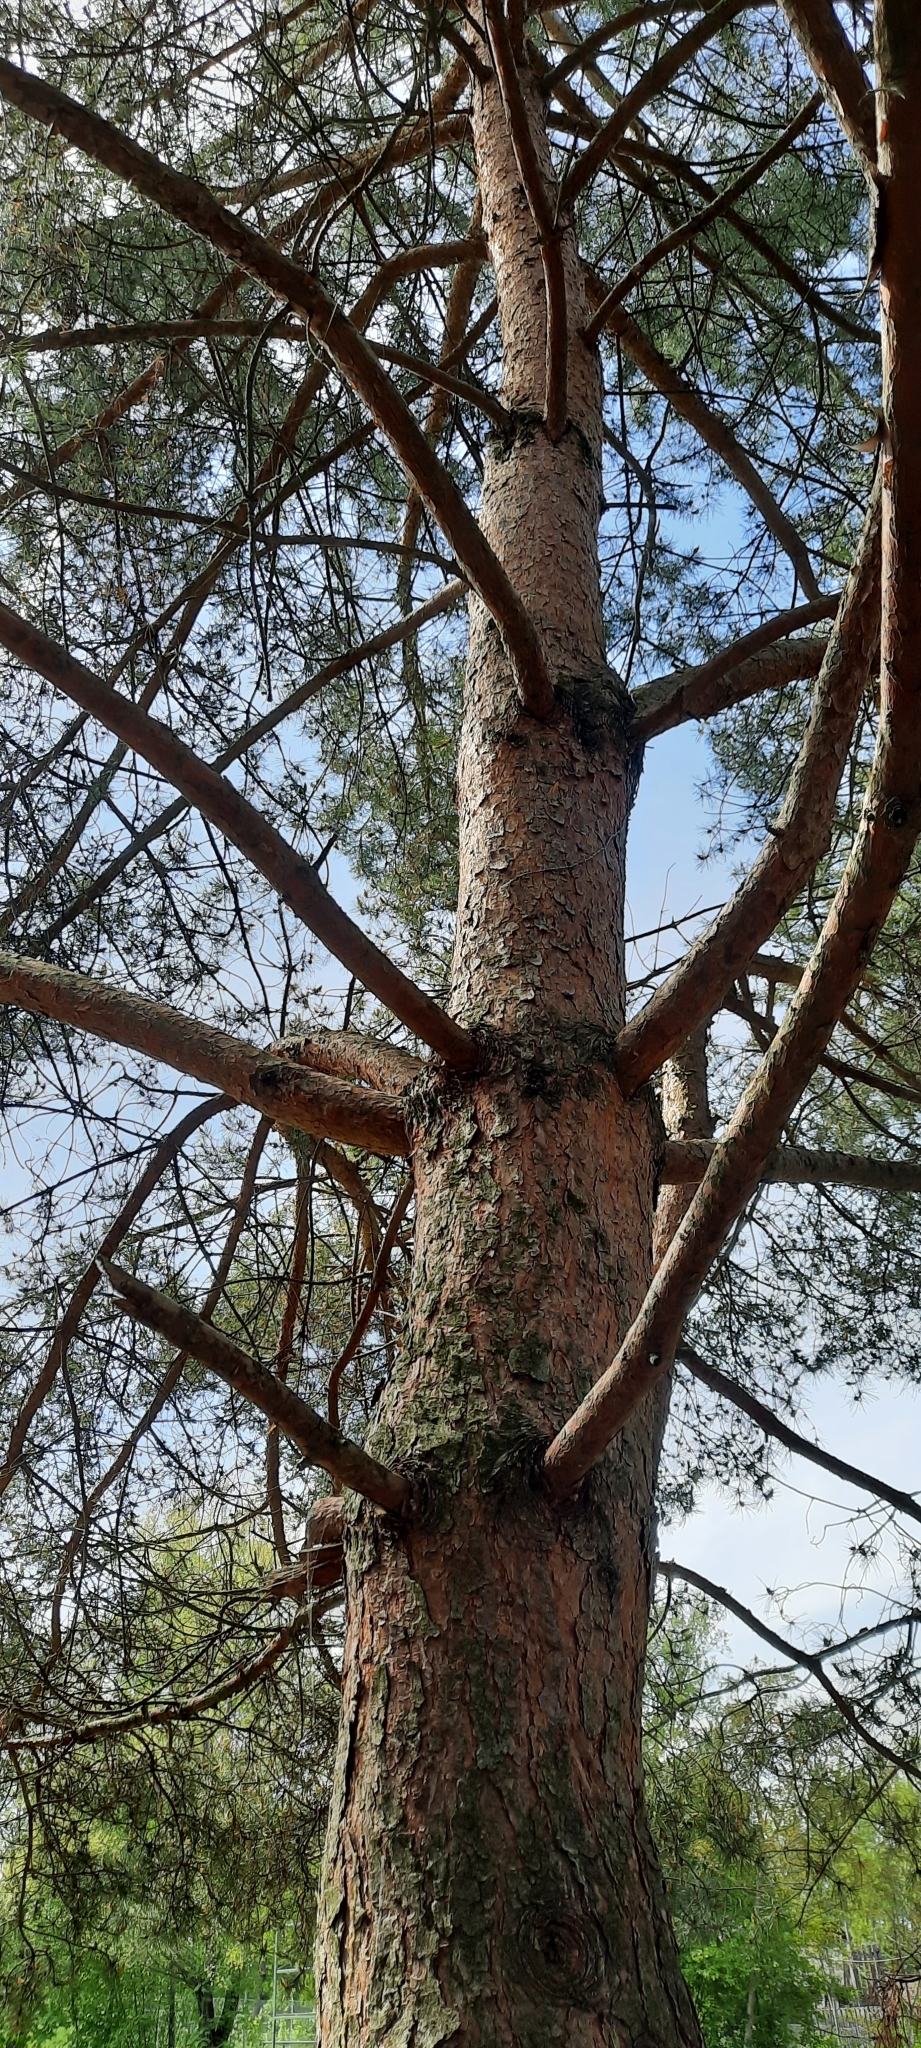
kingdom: Plantae
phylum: Tracheophyta
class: Pinopsida
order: Pinales
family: Pinaceae
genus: Pinus
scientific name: Pinus sylvestris
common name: Scots pine
